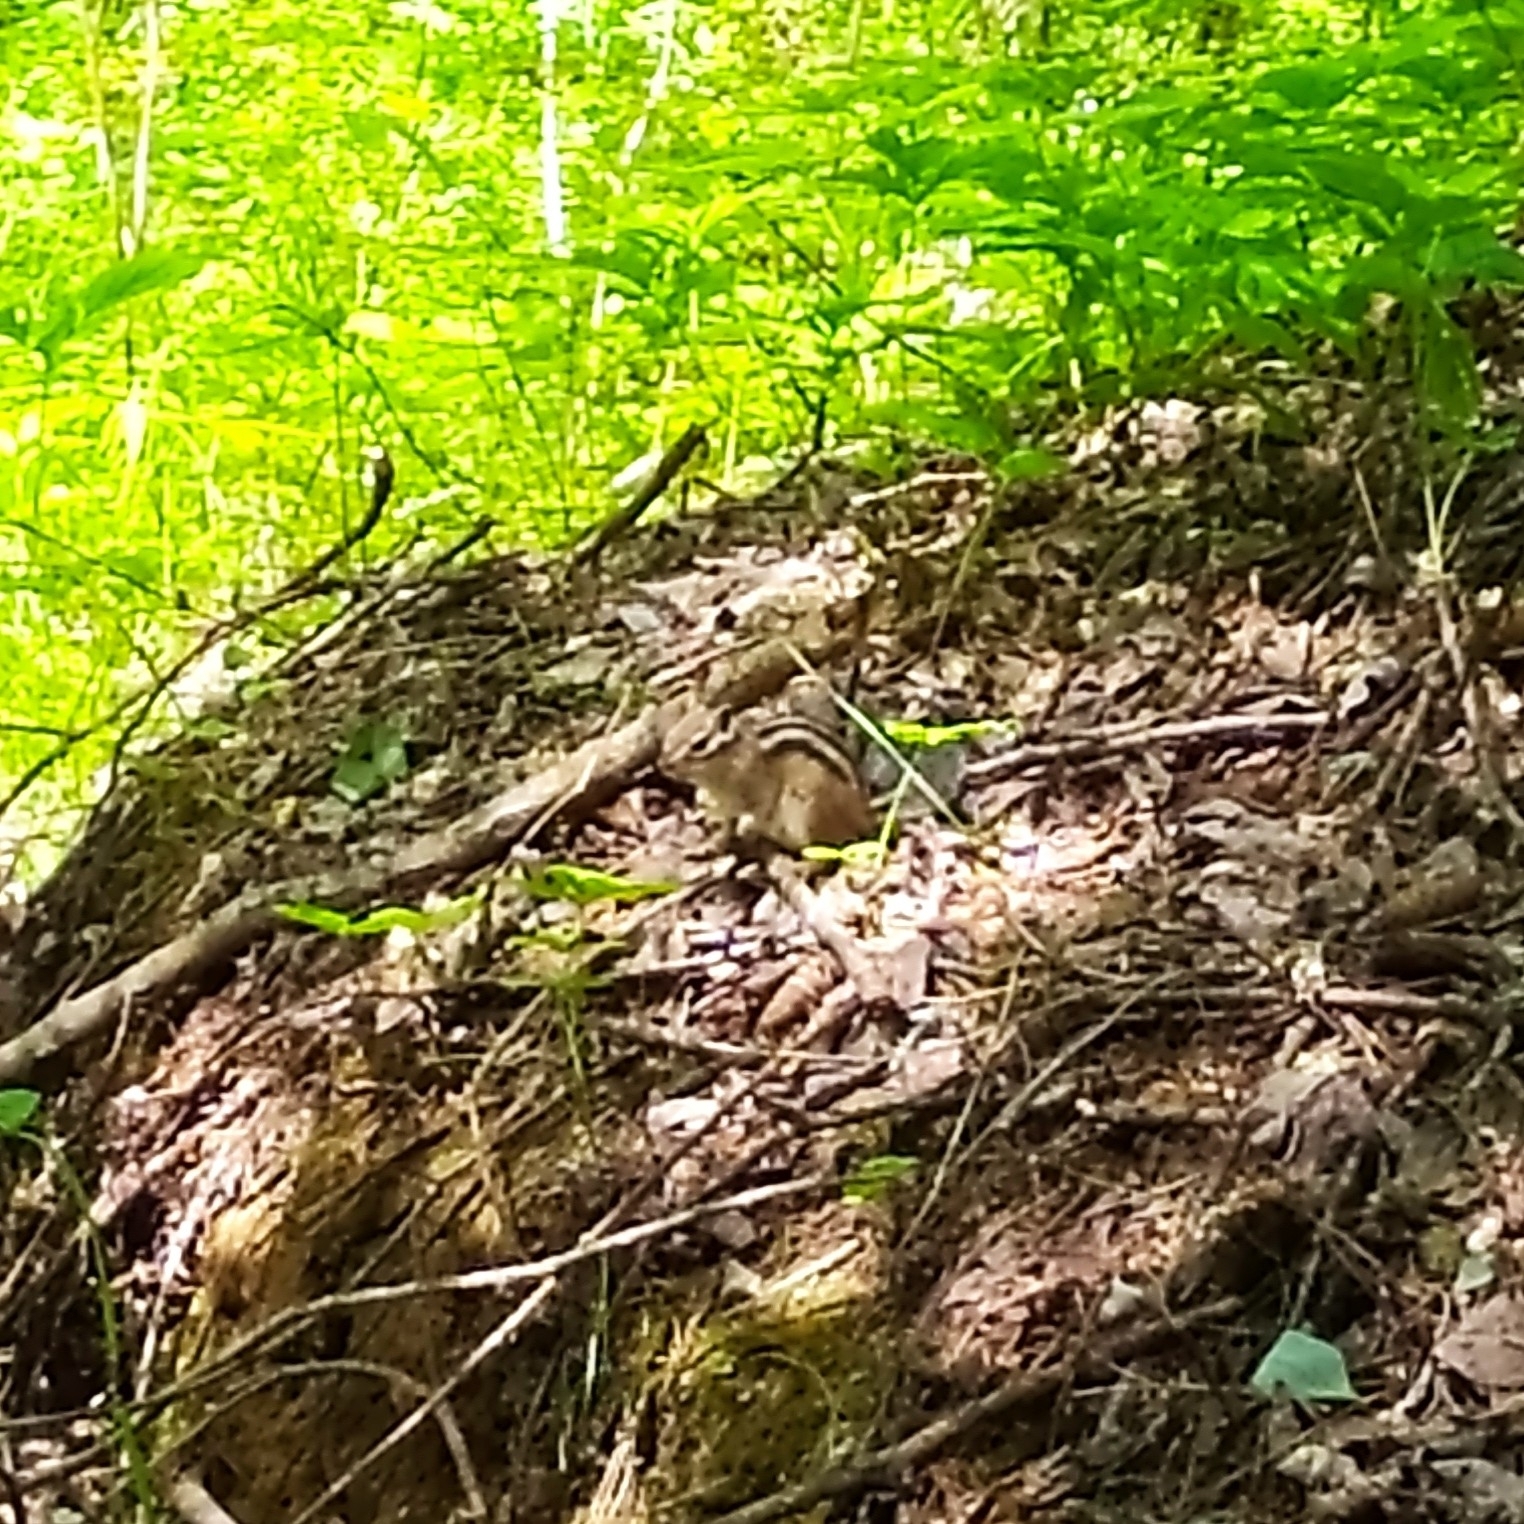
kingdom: Animalia
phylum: Chordata
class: Mammalia
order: Rodentia
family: Sciuridae
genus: Tamias
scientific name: Tamias sibiricus
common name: Siberian chipmunk
